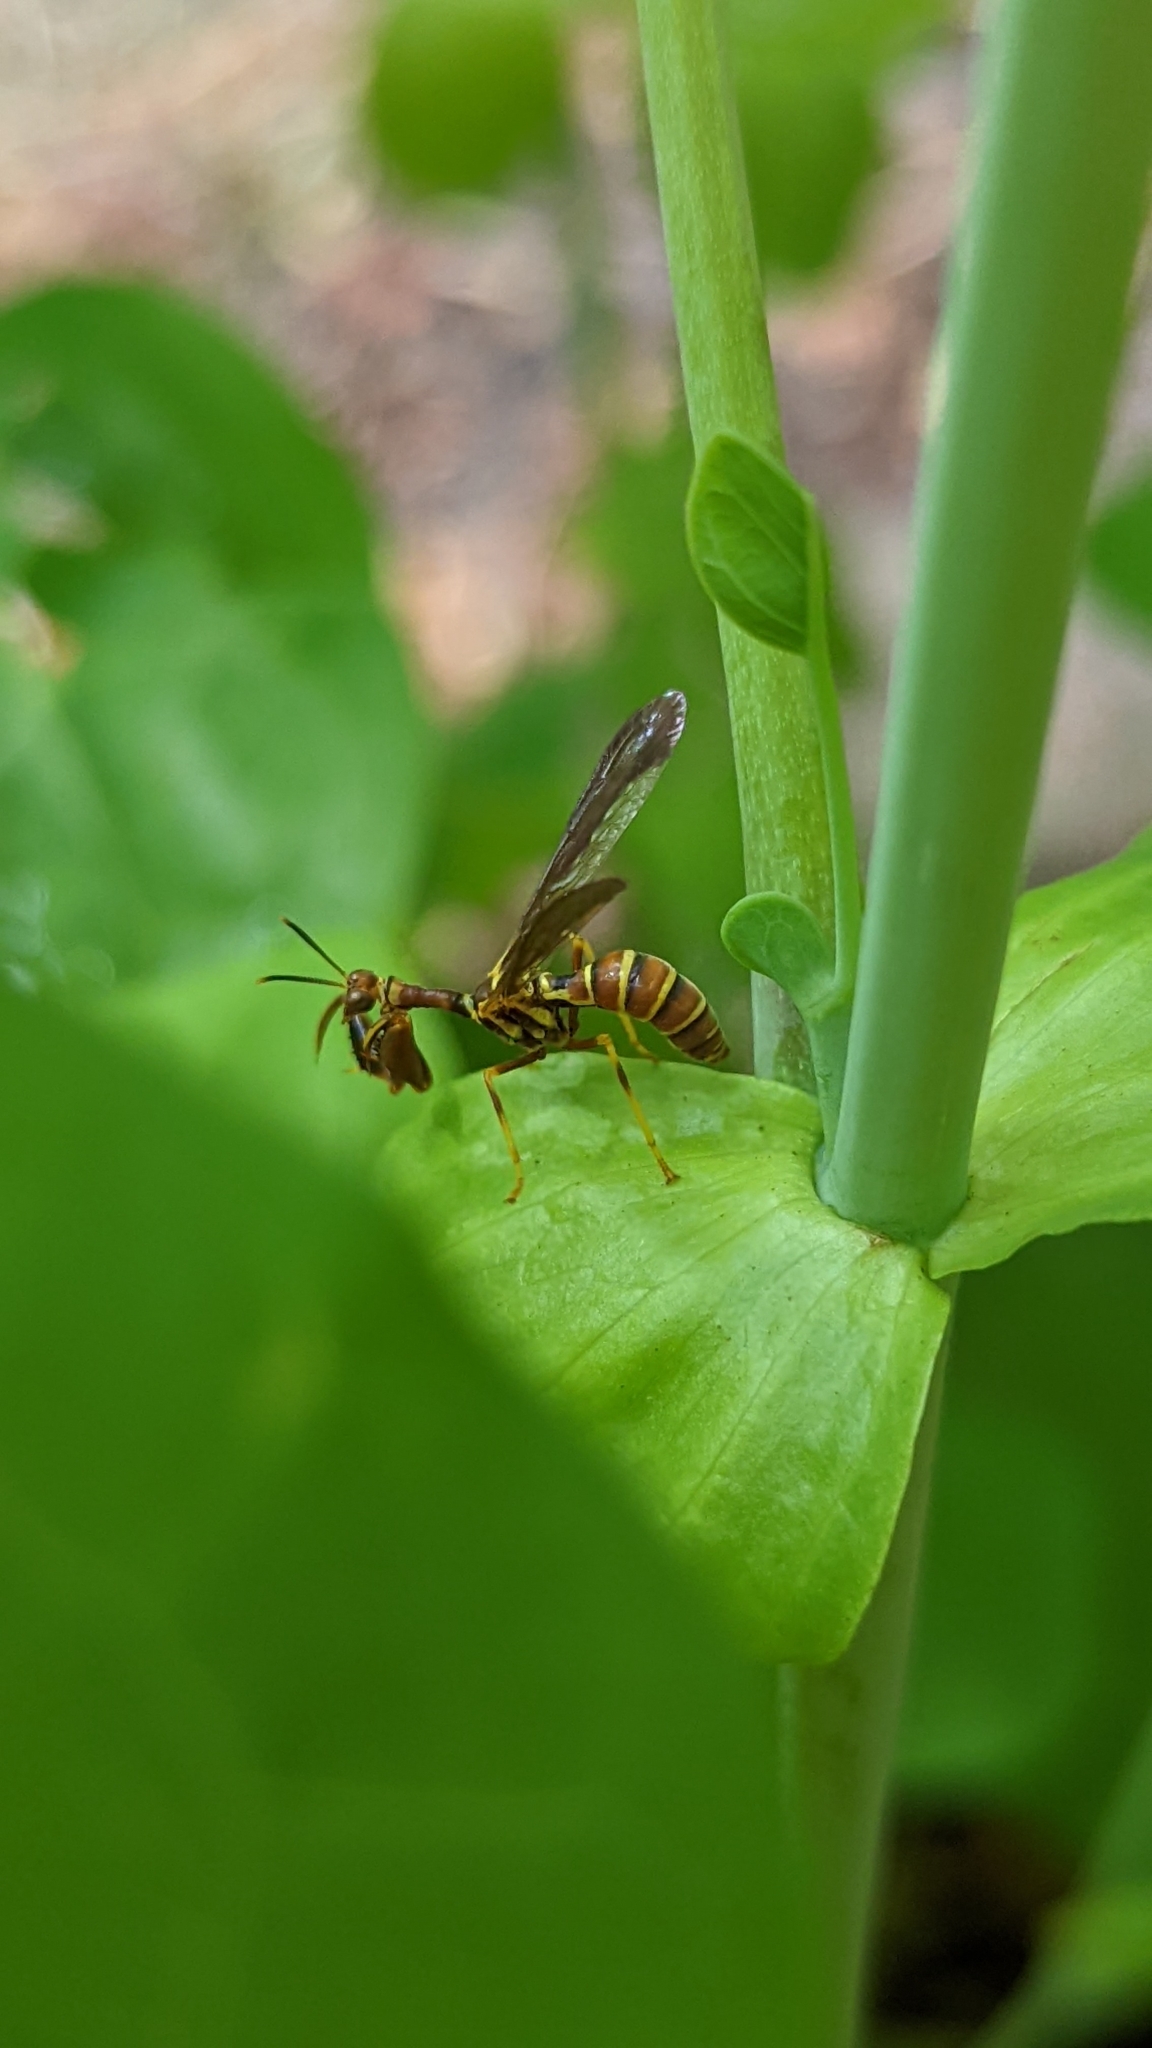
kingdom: Animalia
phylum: Arthropoda
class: Insecta
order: Neuroptera
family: Mantispidae
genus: Climaciella
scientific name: Climaciella brunnea
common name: Brown wasp mantidfly
